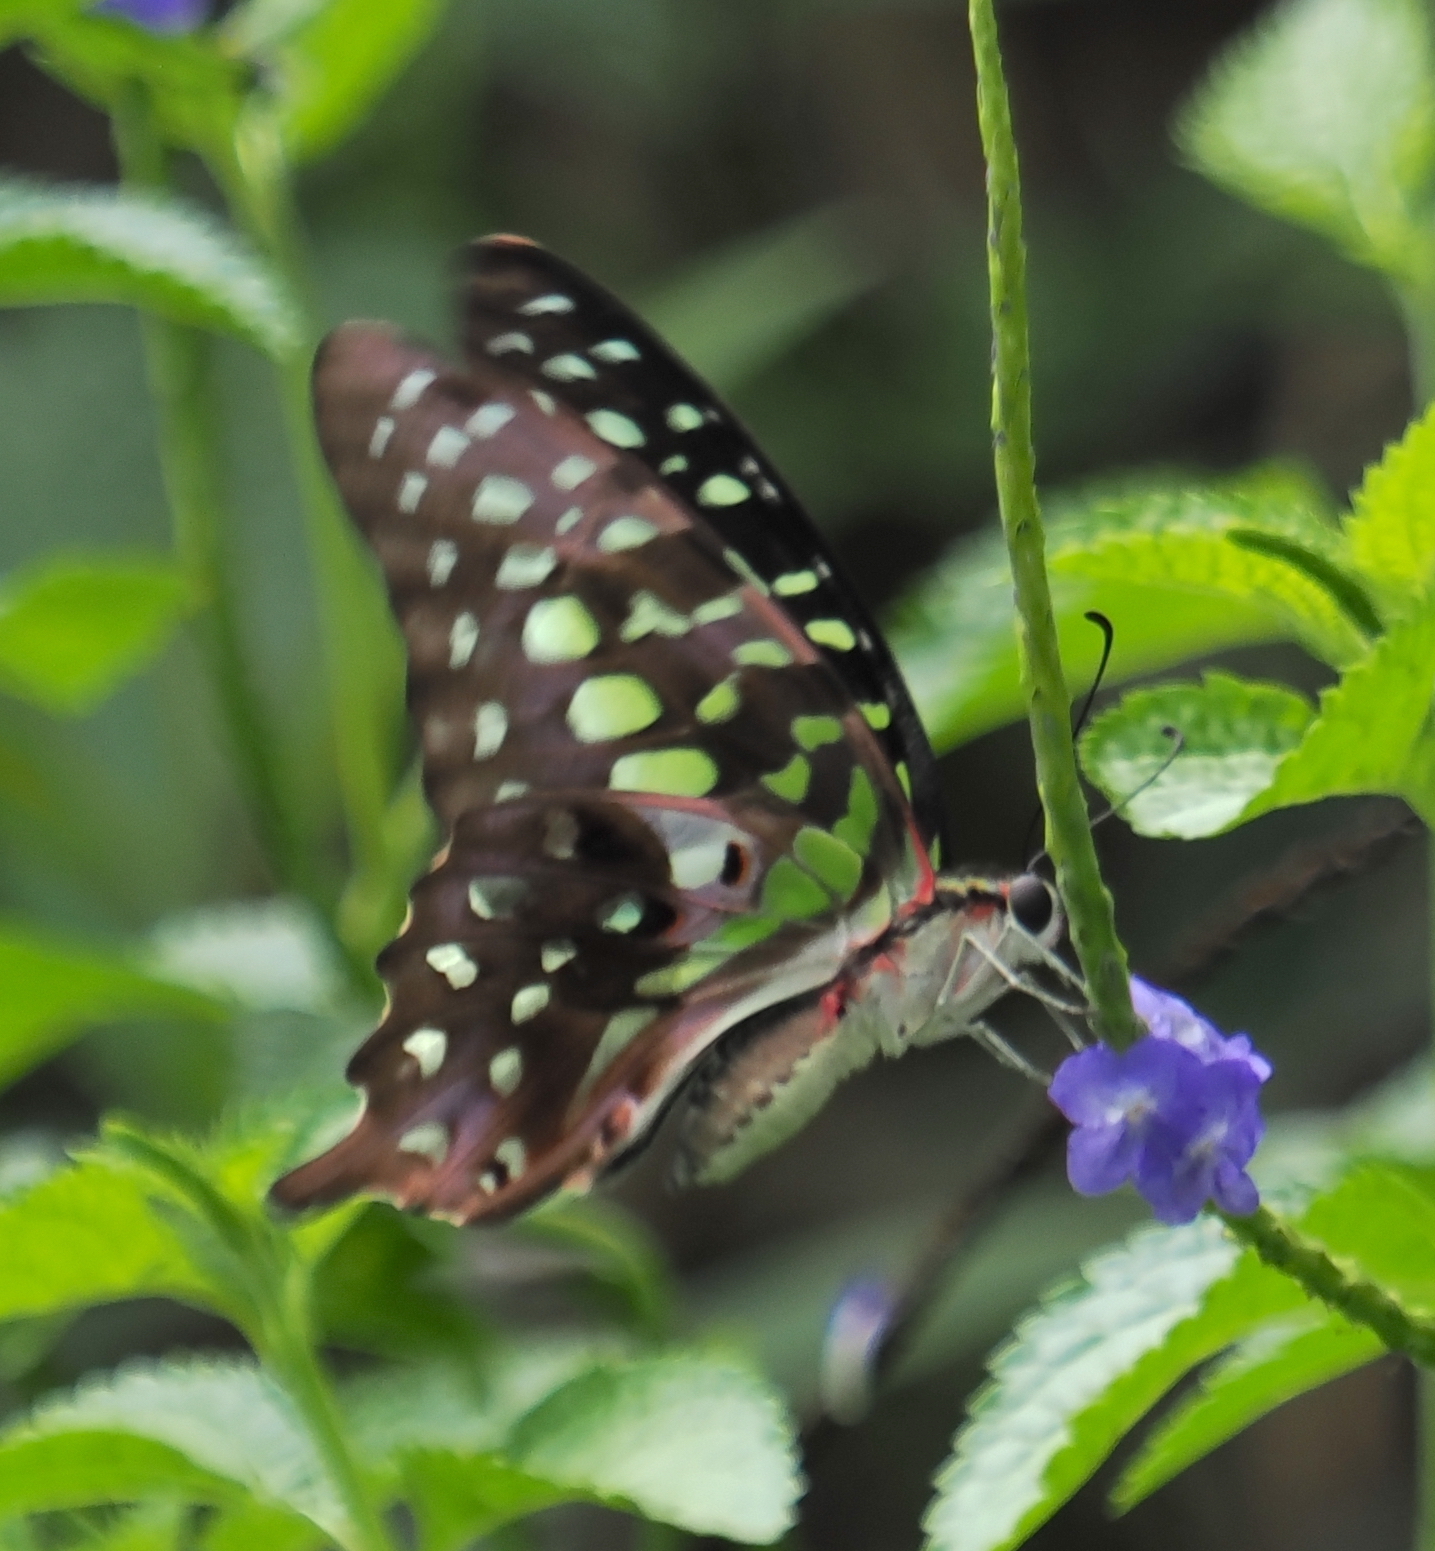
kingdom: Animalia
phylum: Arthropoda
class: Insecta
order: Lepidoptera
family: Papilionidae
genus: Graphium
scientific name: Graphium agamemnon
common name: Tailed jay
